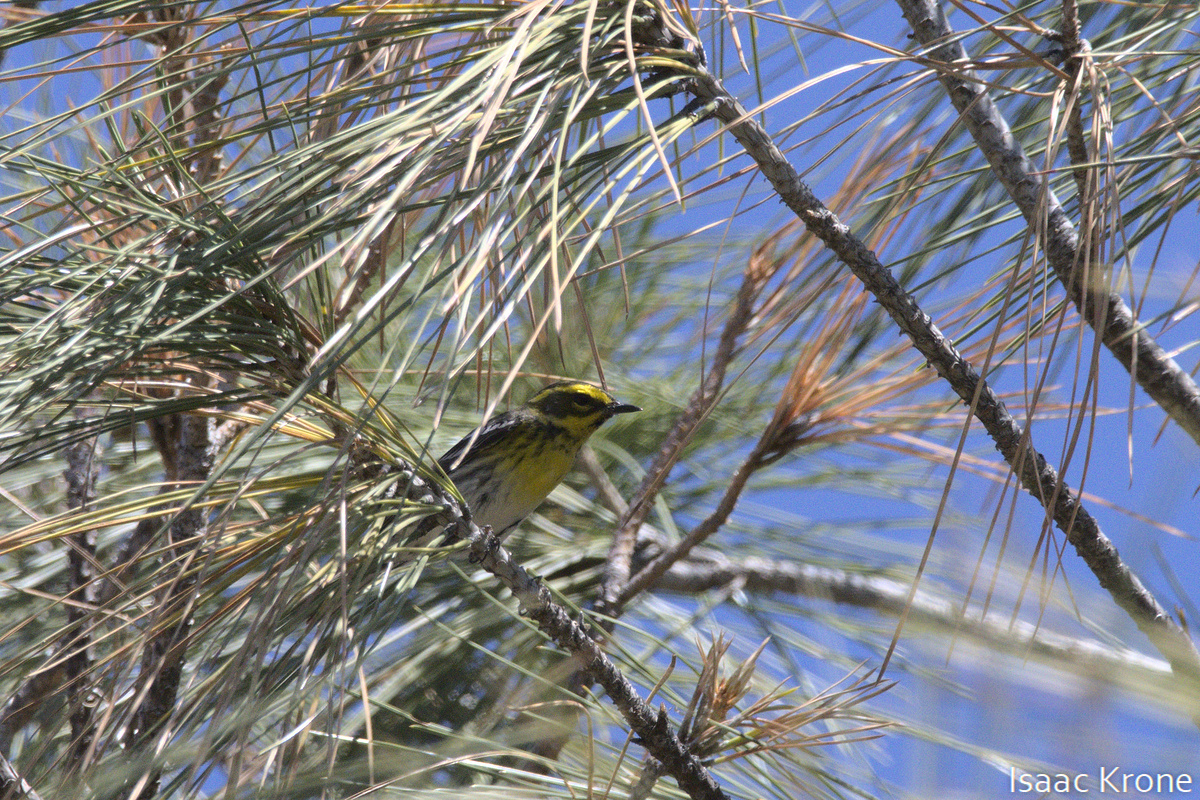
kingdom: Animalia
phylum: Chordata
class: Aves
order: Passeriformes
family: Parulidae
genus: Setophaga
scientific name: Setophaga townsendi
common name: Townsend's warbler
